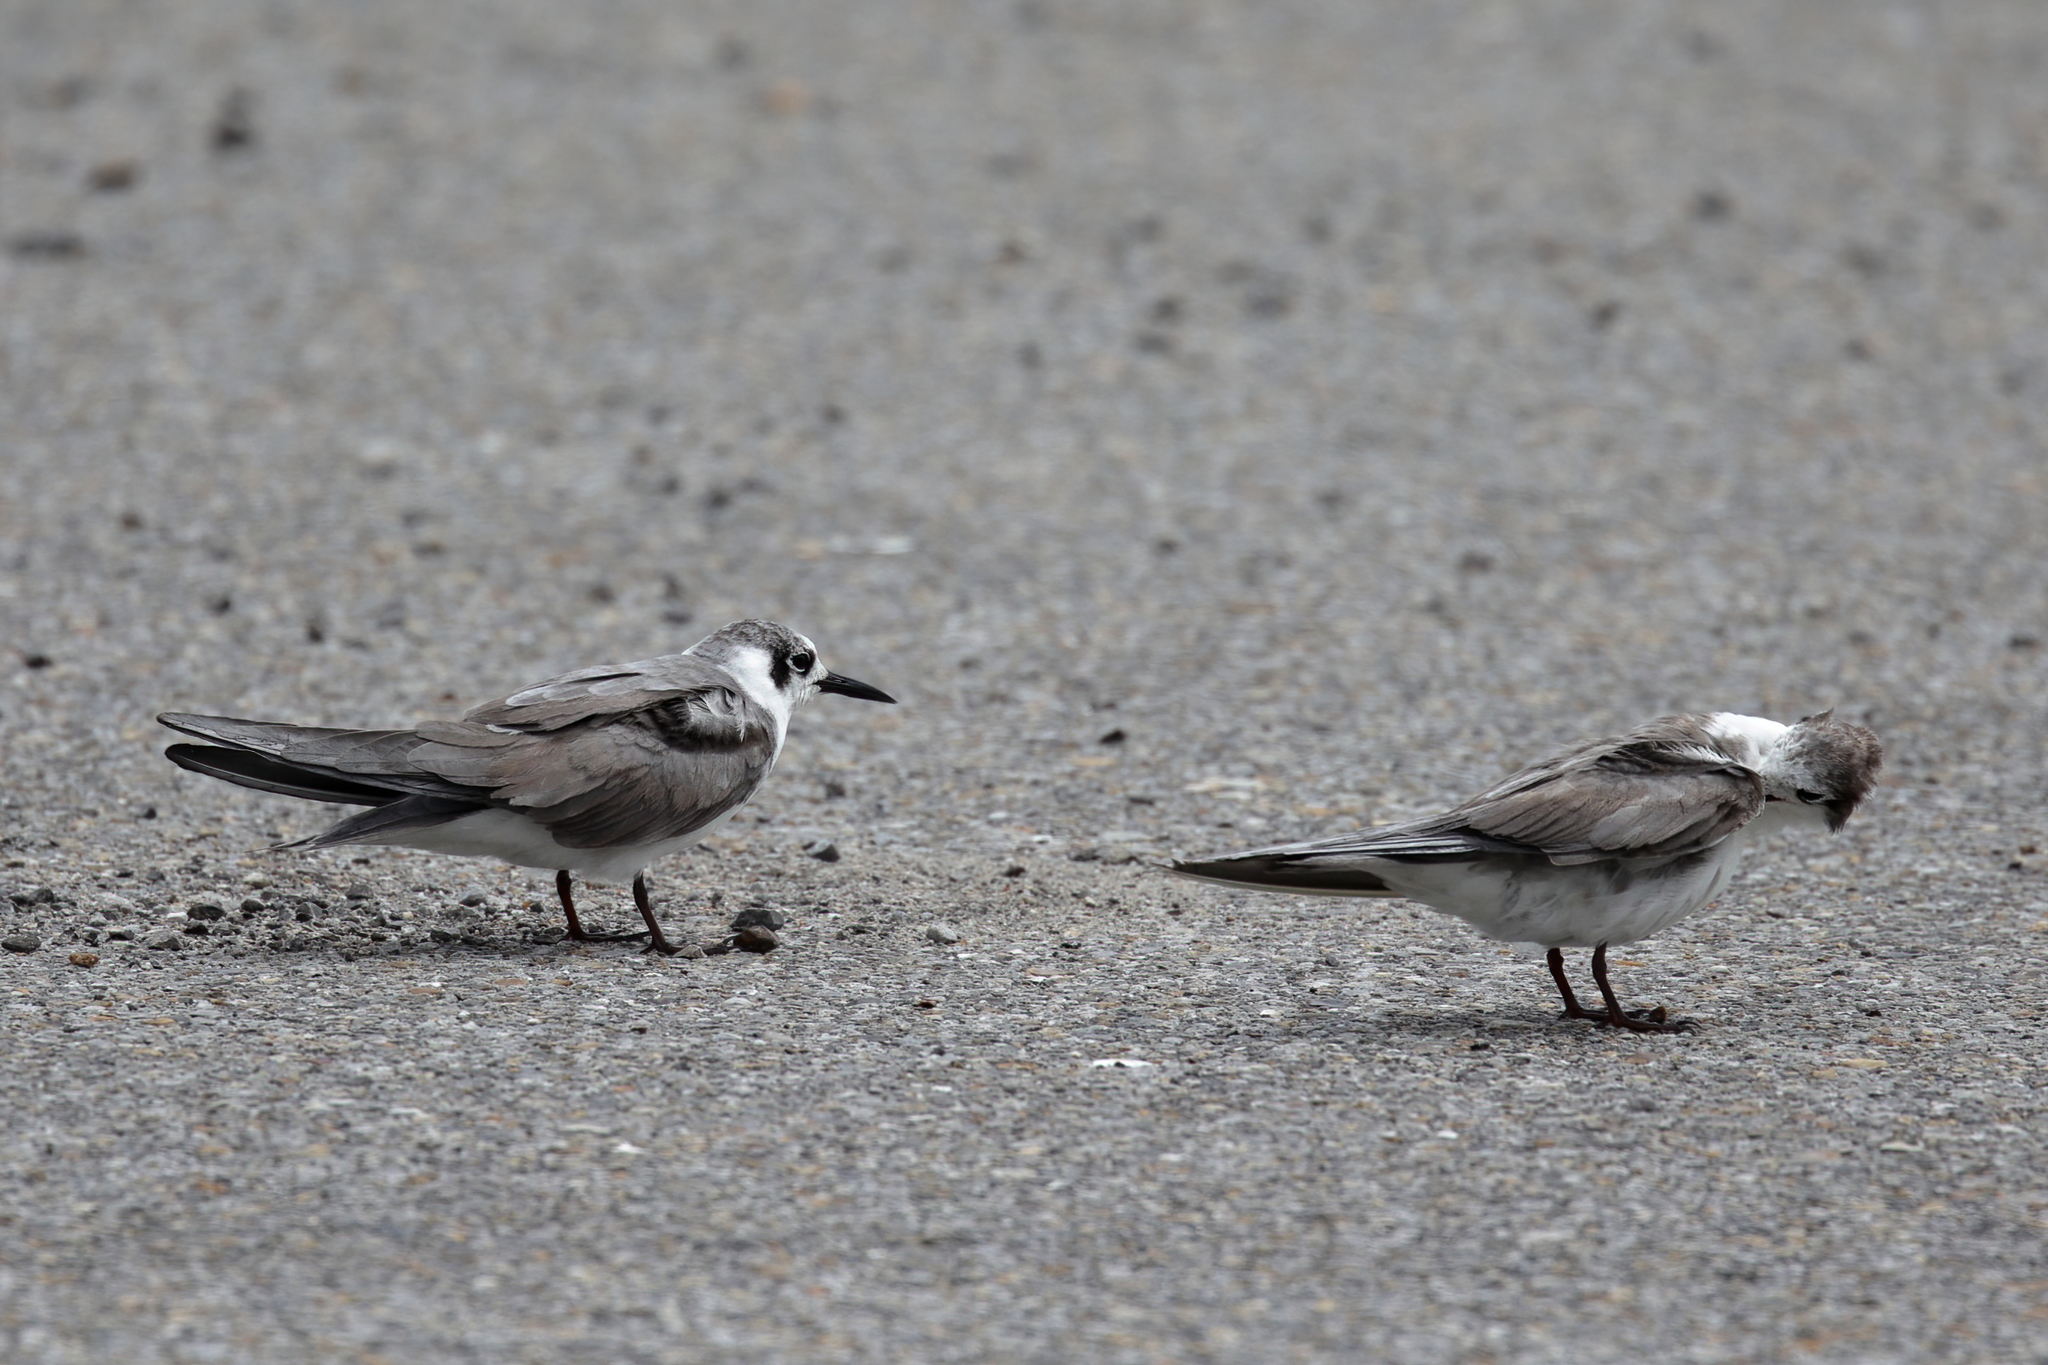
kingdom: Animalia
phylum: Chordata
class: Aves
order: Charadriiformes
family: Laridae
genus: Chlidonias
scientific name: Chlidonias niger
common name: Black tern
